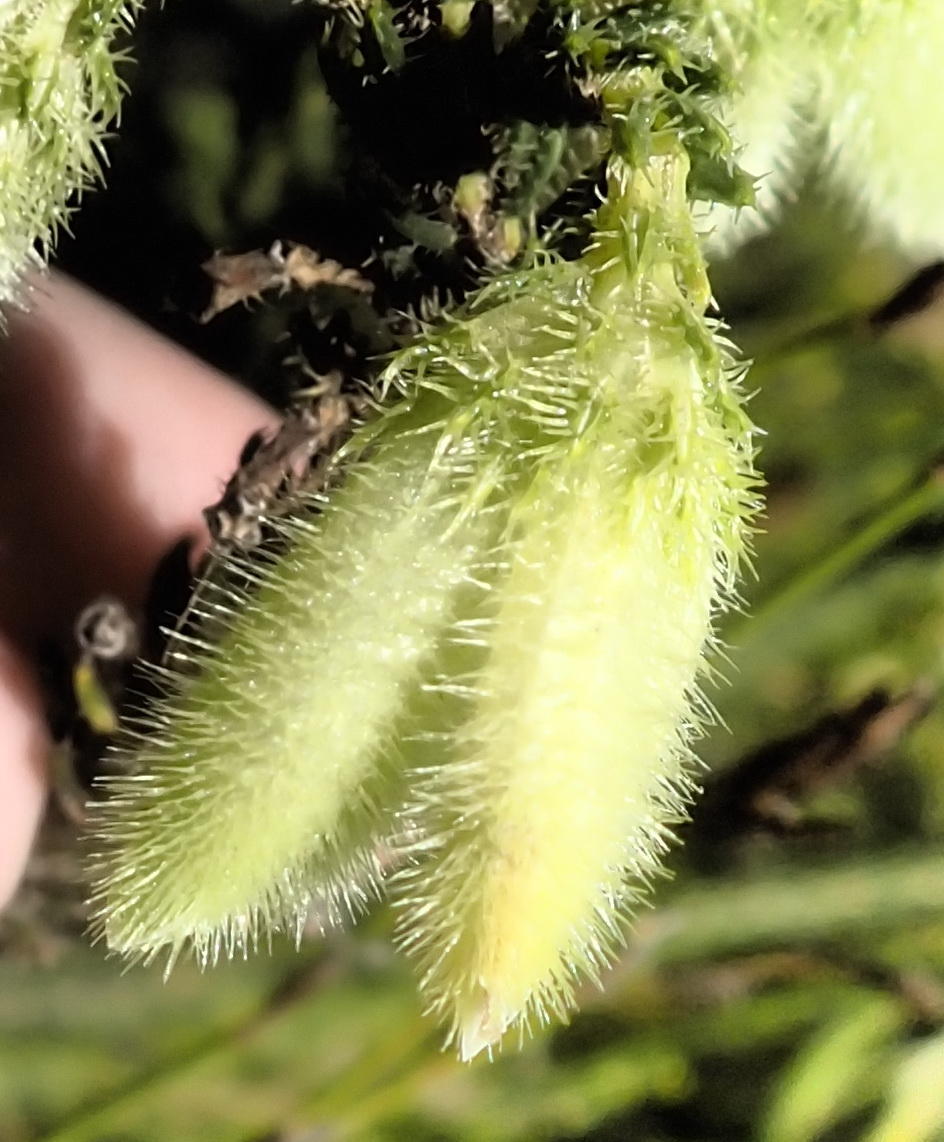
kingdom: Plantae
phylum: Tracheophyta
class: Magnoliopsida
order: Ericales
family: Ericaceae
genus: Erica
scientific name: Erica sparmannii
